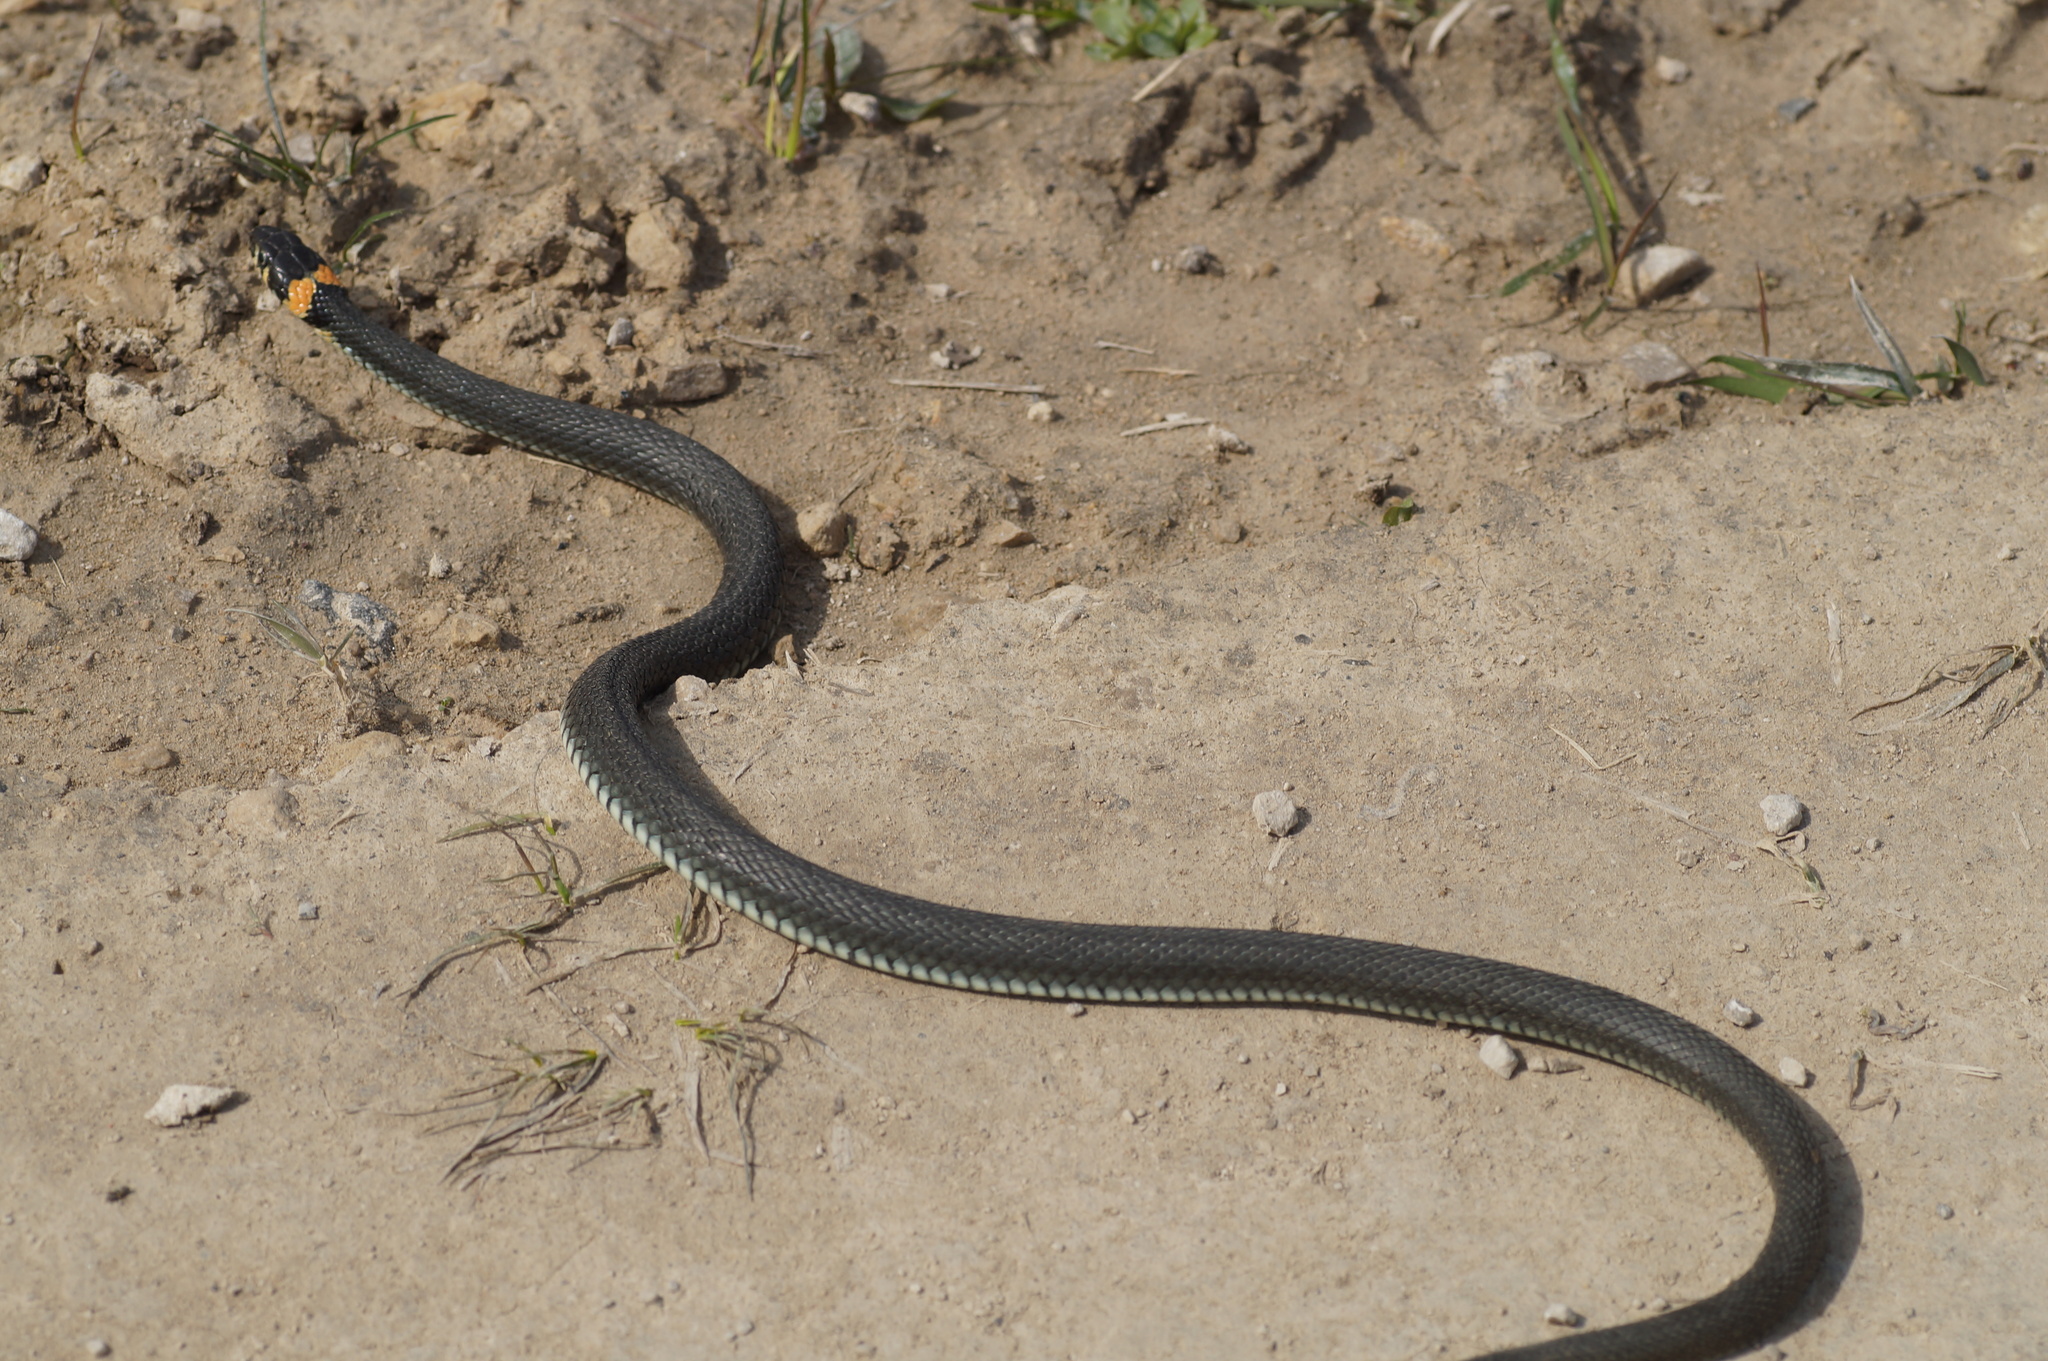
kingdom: Animalia
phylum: Chordata
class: Squamata
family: Colubridae
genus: Natrix
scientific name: Natrix natrix
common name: Grass snake
